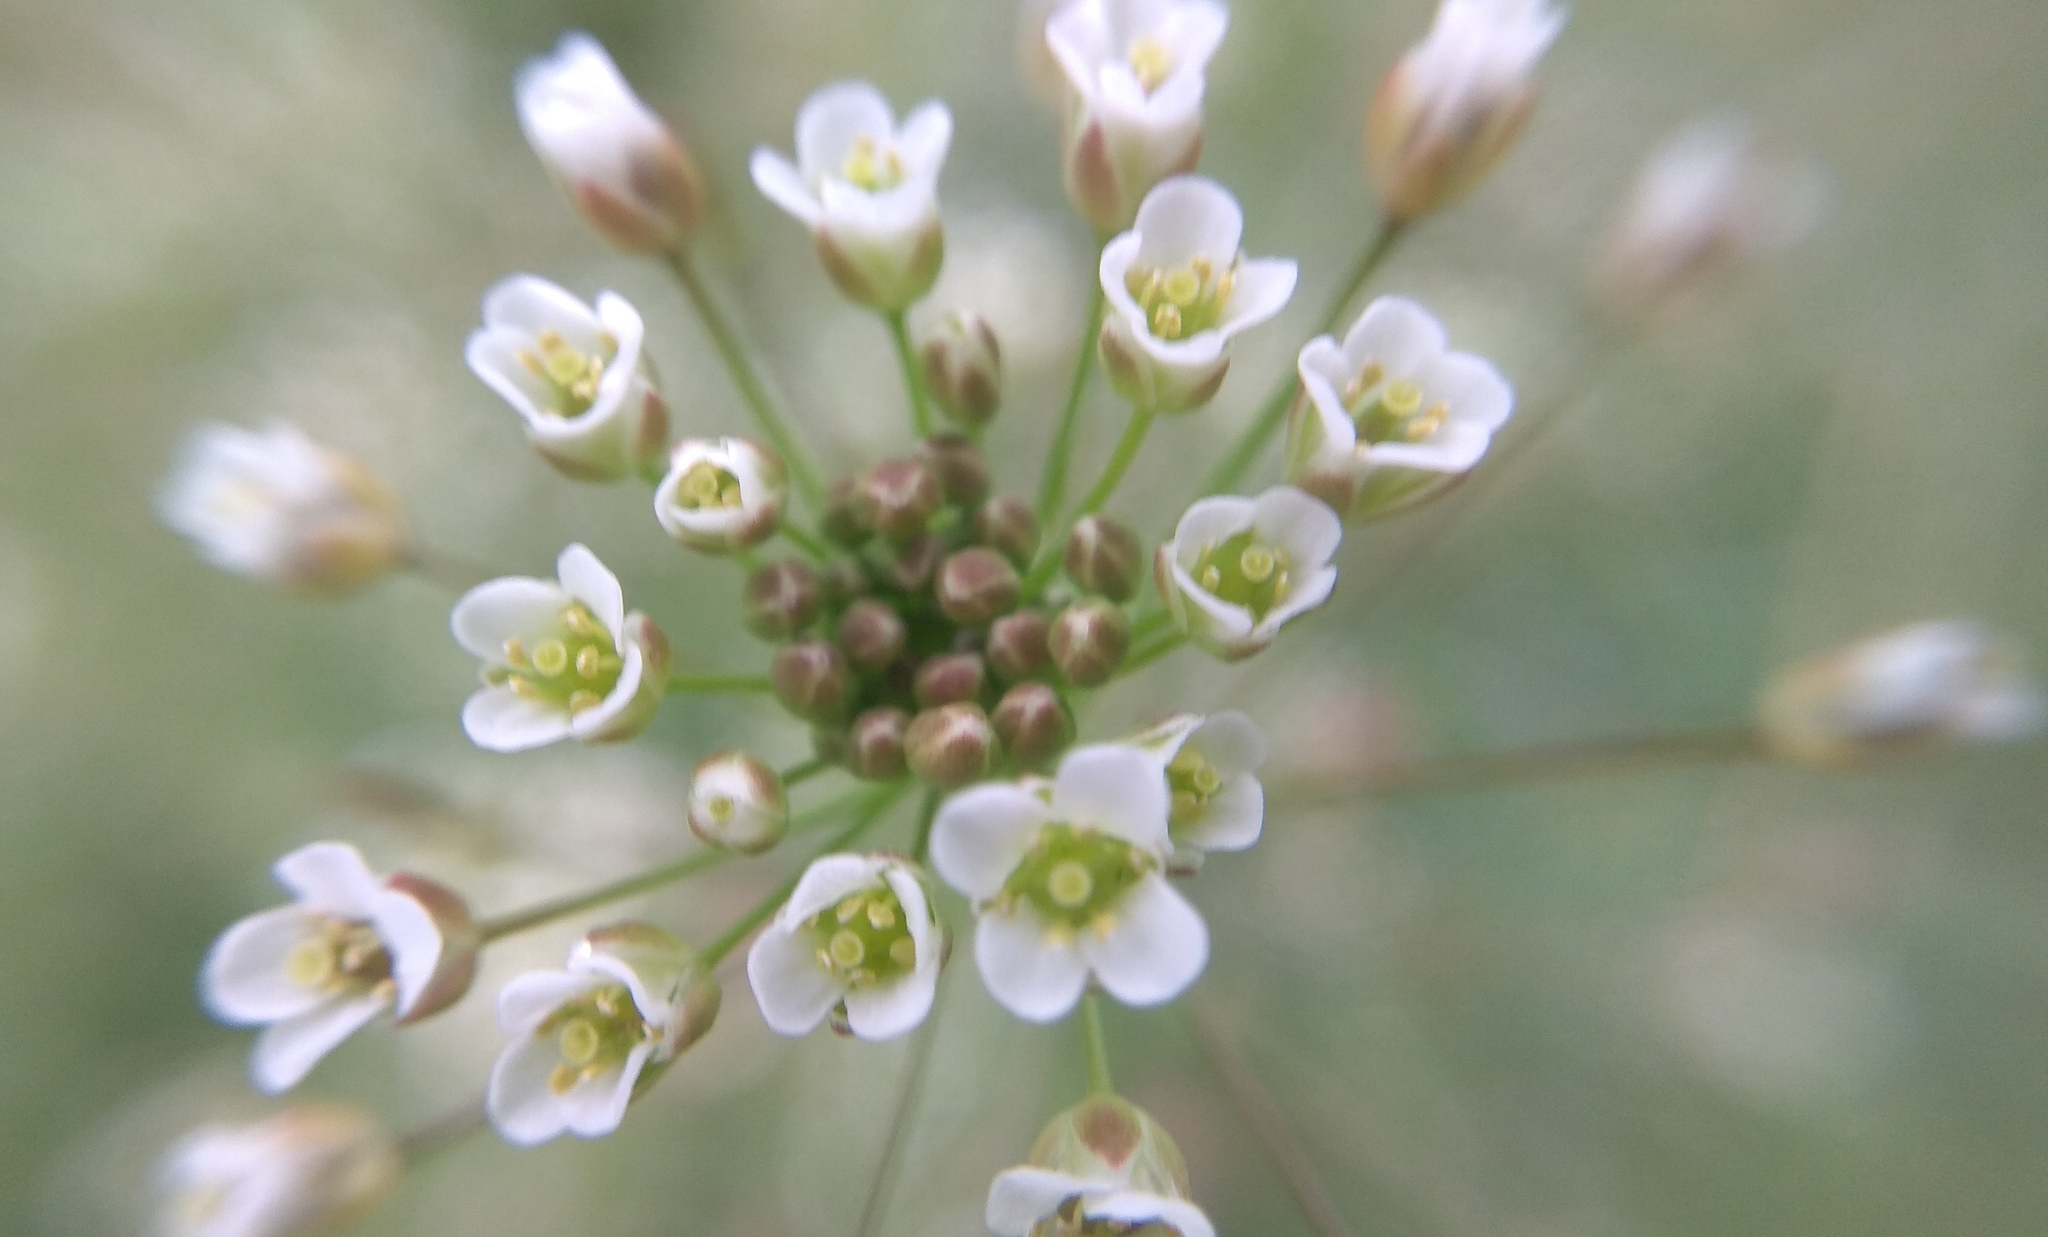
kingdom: Plantae
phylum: Tracheophyta
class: Magnoliopsida
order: Brassicales
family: Brassicaceae
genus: Capsella
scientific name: Capsella bursa-pastoris
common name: Shepherd's purse
